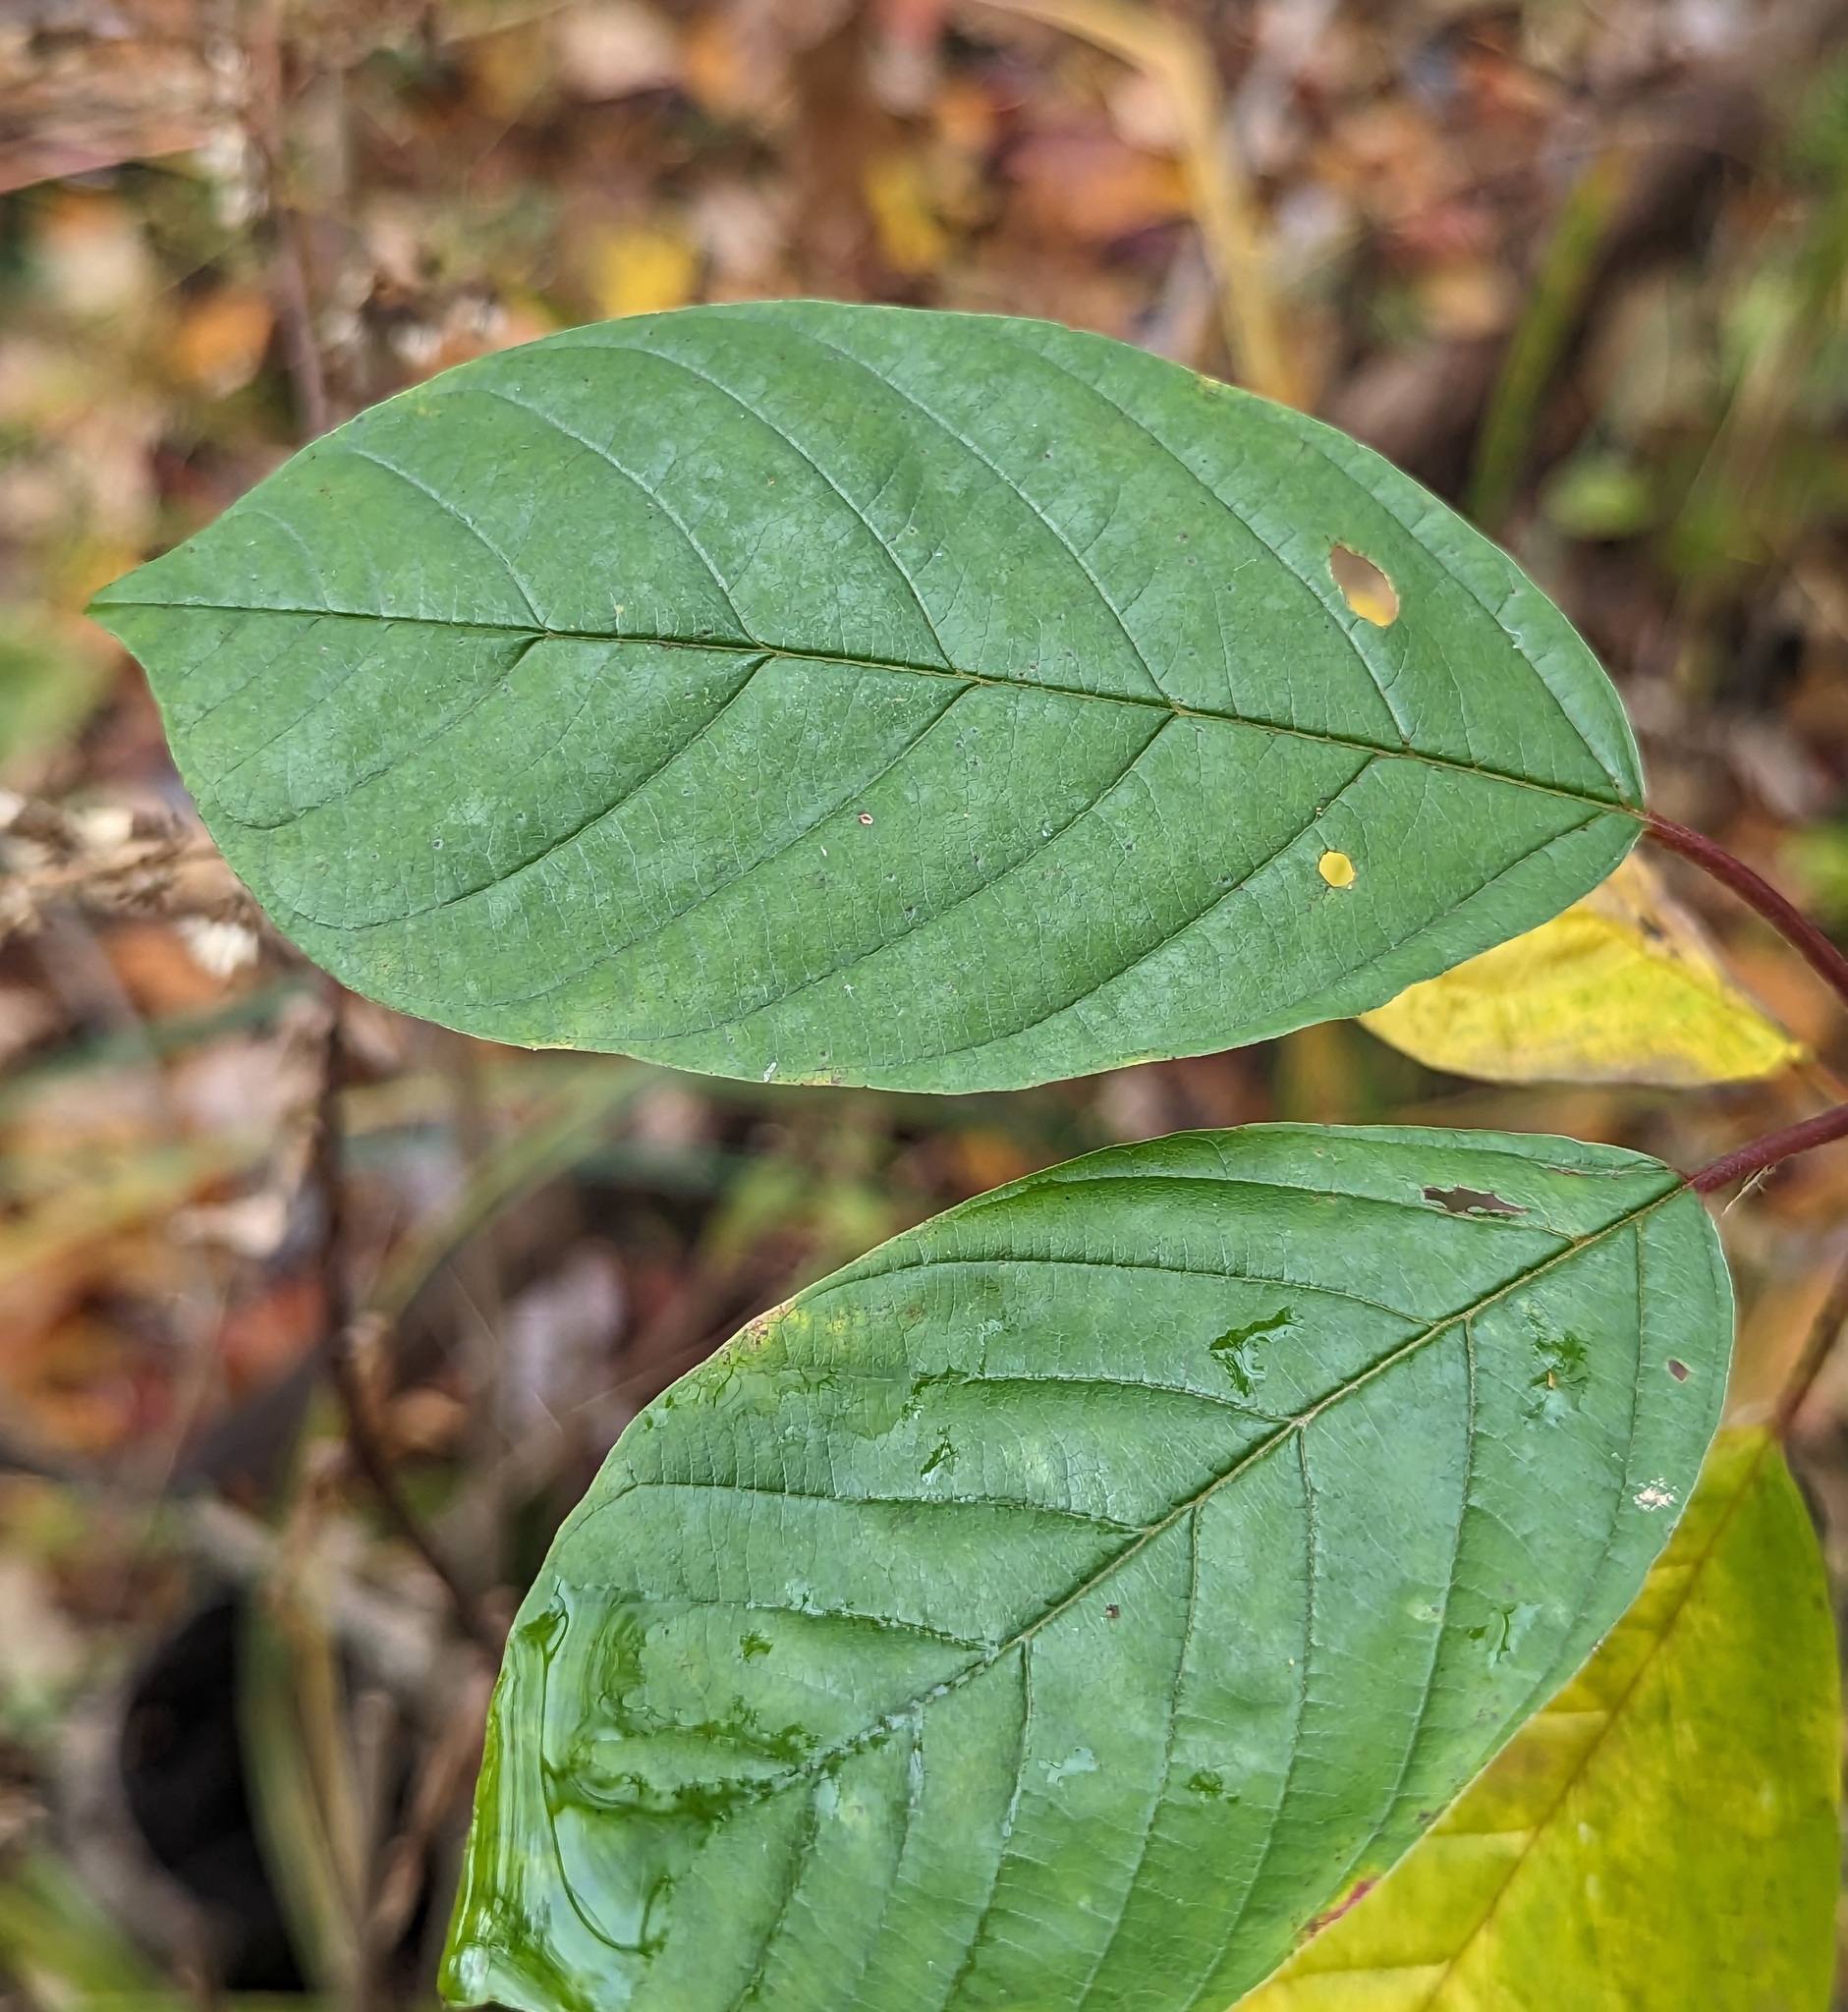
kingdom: Plantae
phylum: Tracheophyta
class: Magnoliopsida
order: Rosales
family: Rhamnaceae
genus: Frangula
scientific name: Frangula alnus
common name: Alder buckthorn
